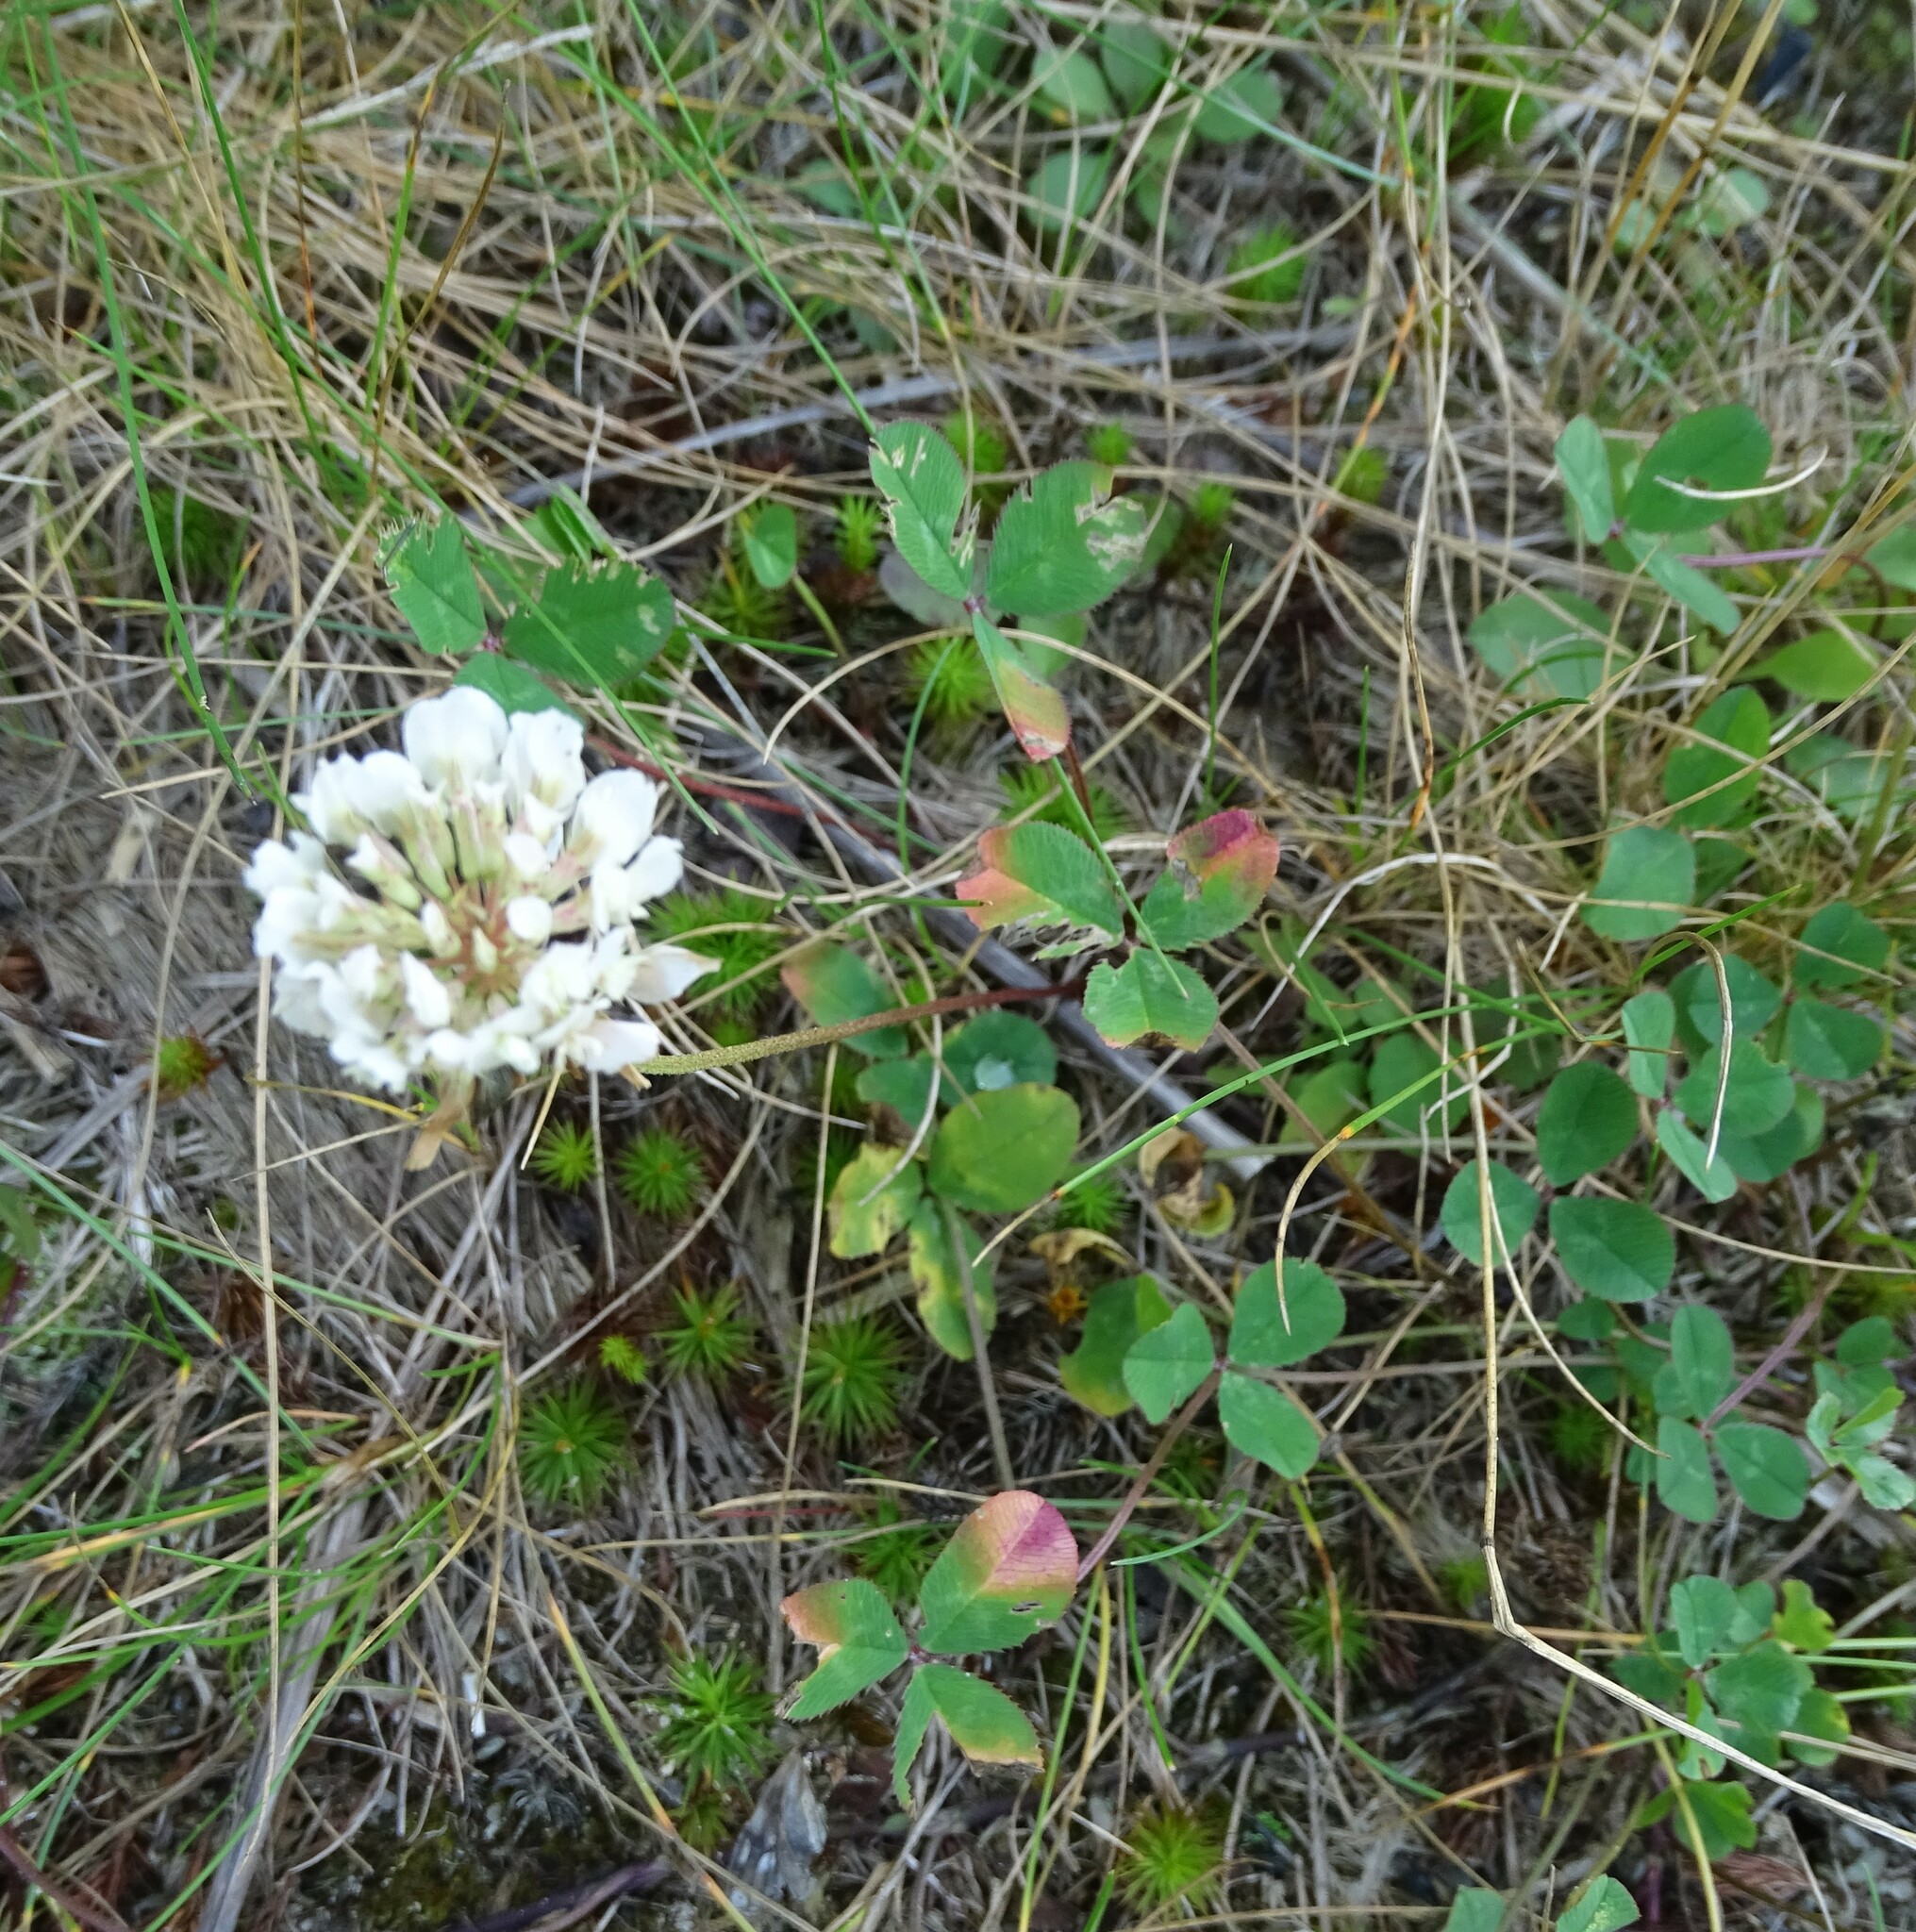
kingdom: Plantae
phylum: Tracheophyta
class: Magnoliopsida
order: Fabales
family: Fabaceae
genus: Trifolium
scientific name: Trifolium repens
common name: White clover
